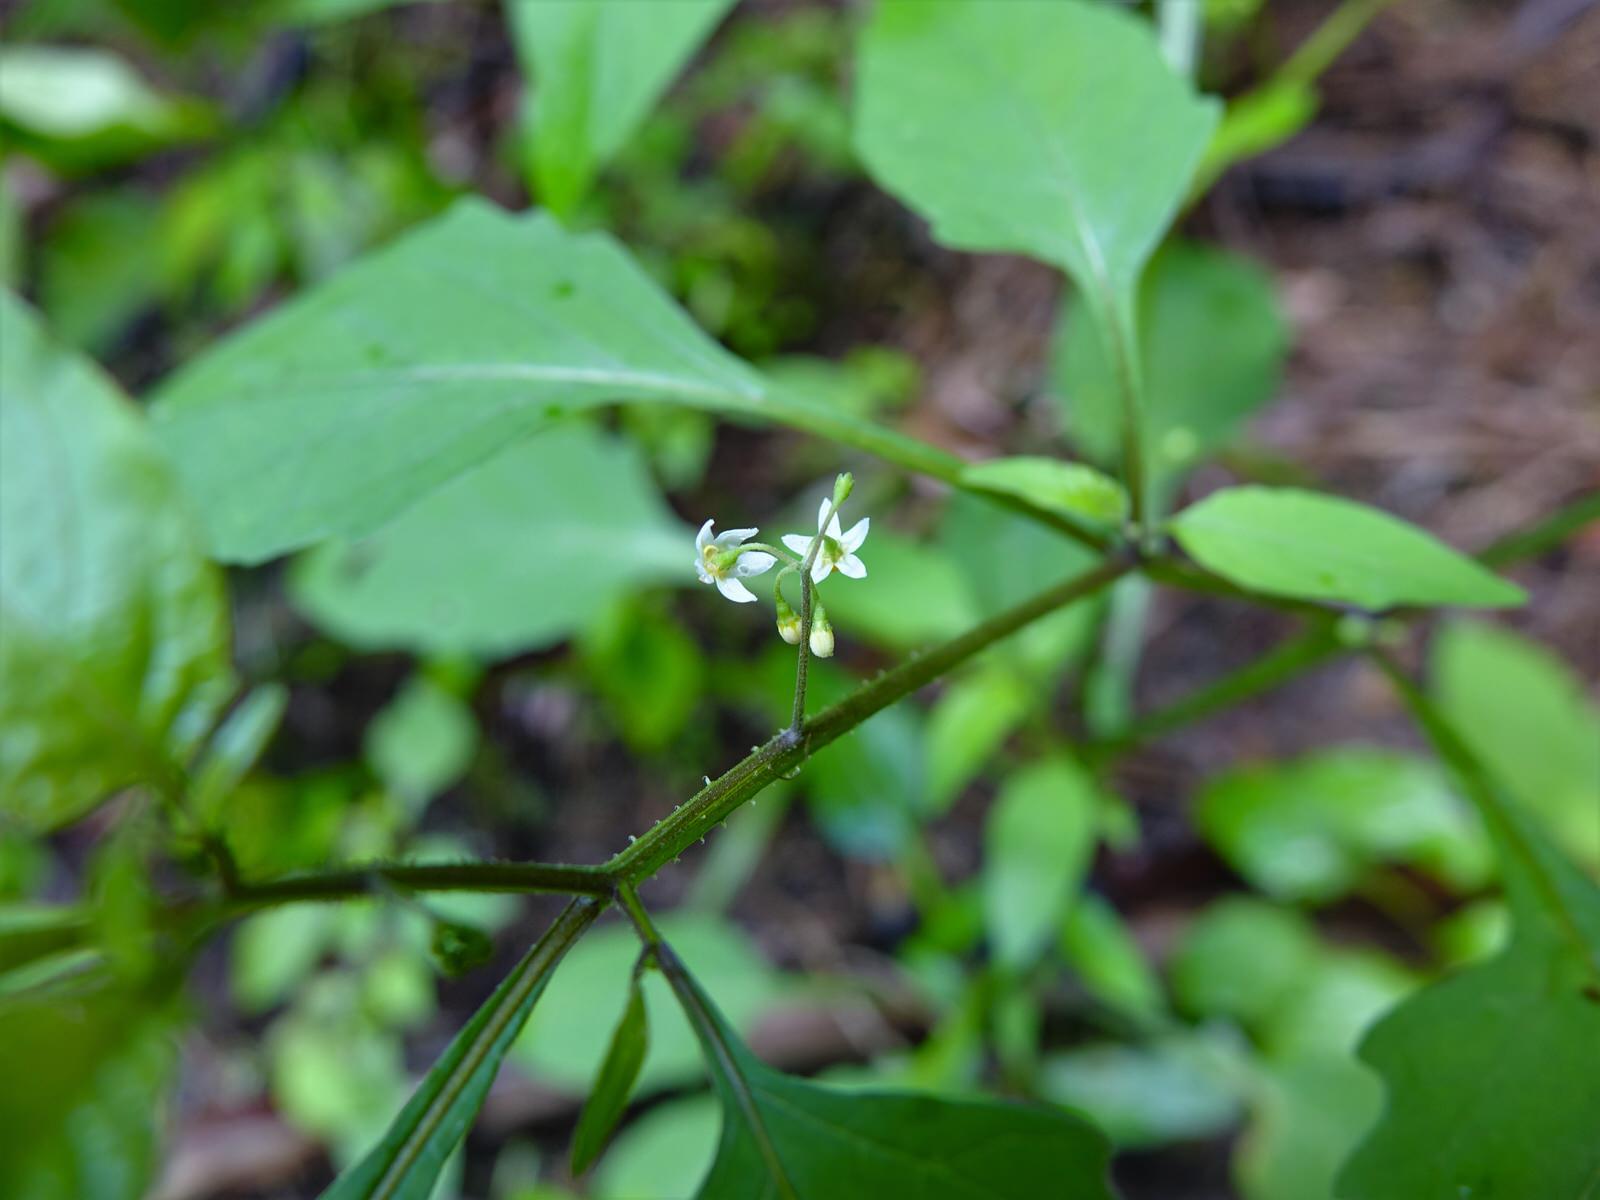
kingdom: Plantae
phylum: Tracheophyta
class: Magnoliopsida
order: Solanales
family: Solanaceae
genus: Solanum
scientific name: Solanum americanum
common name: American black nightshade
